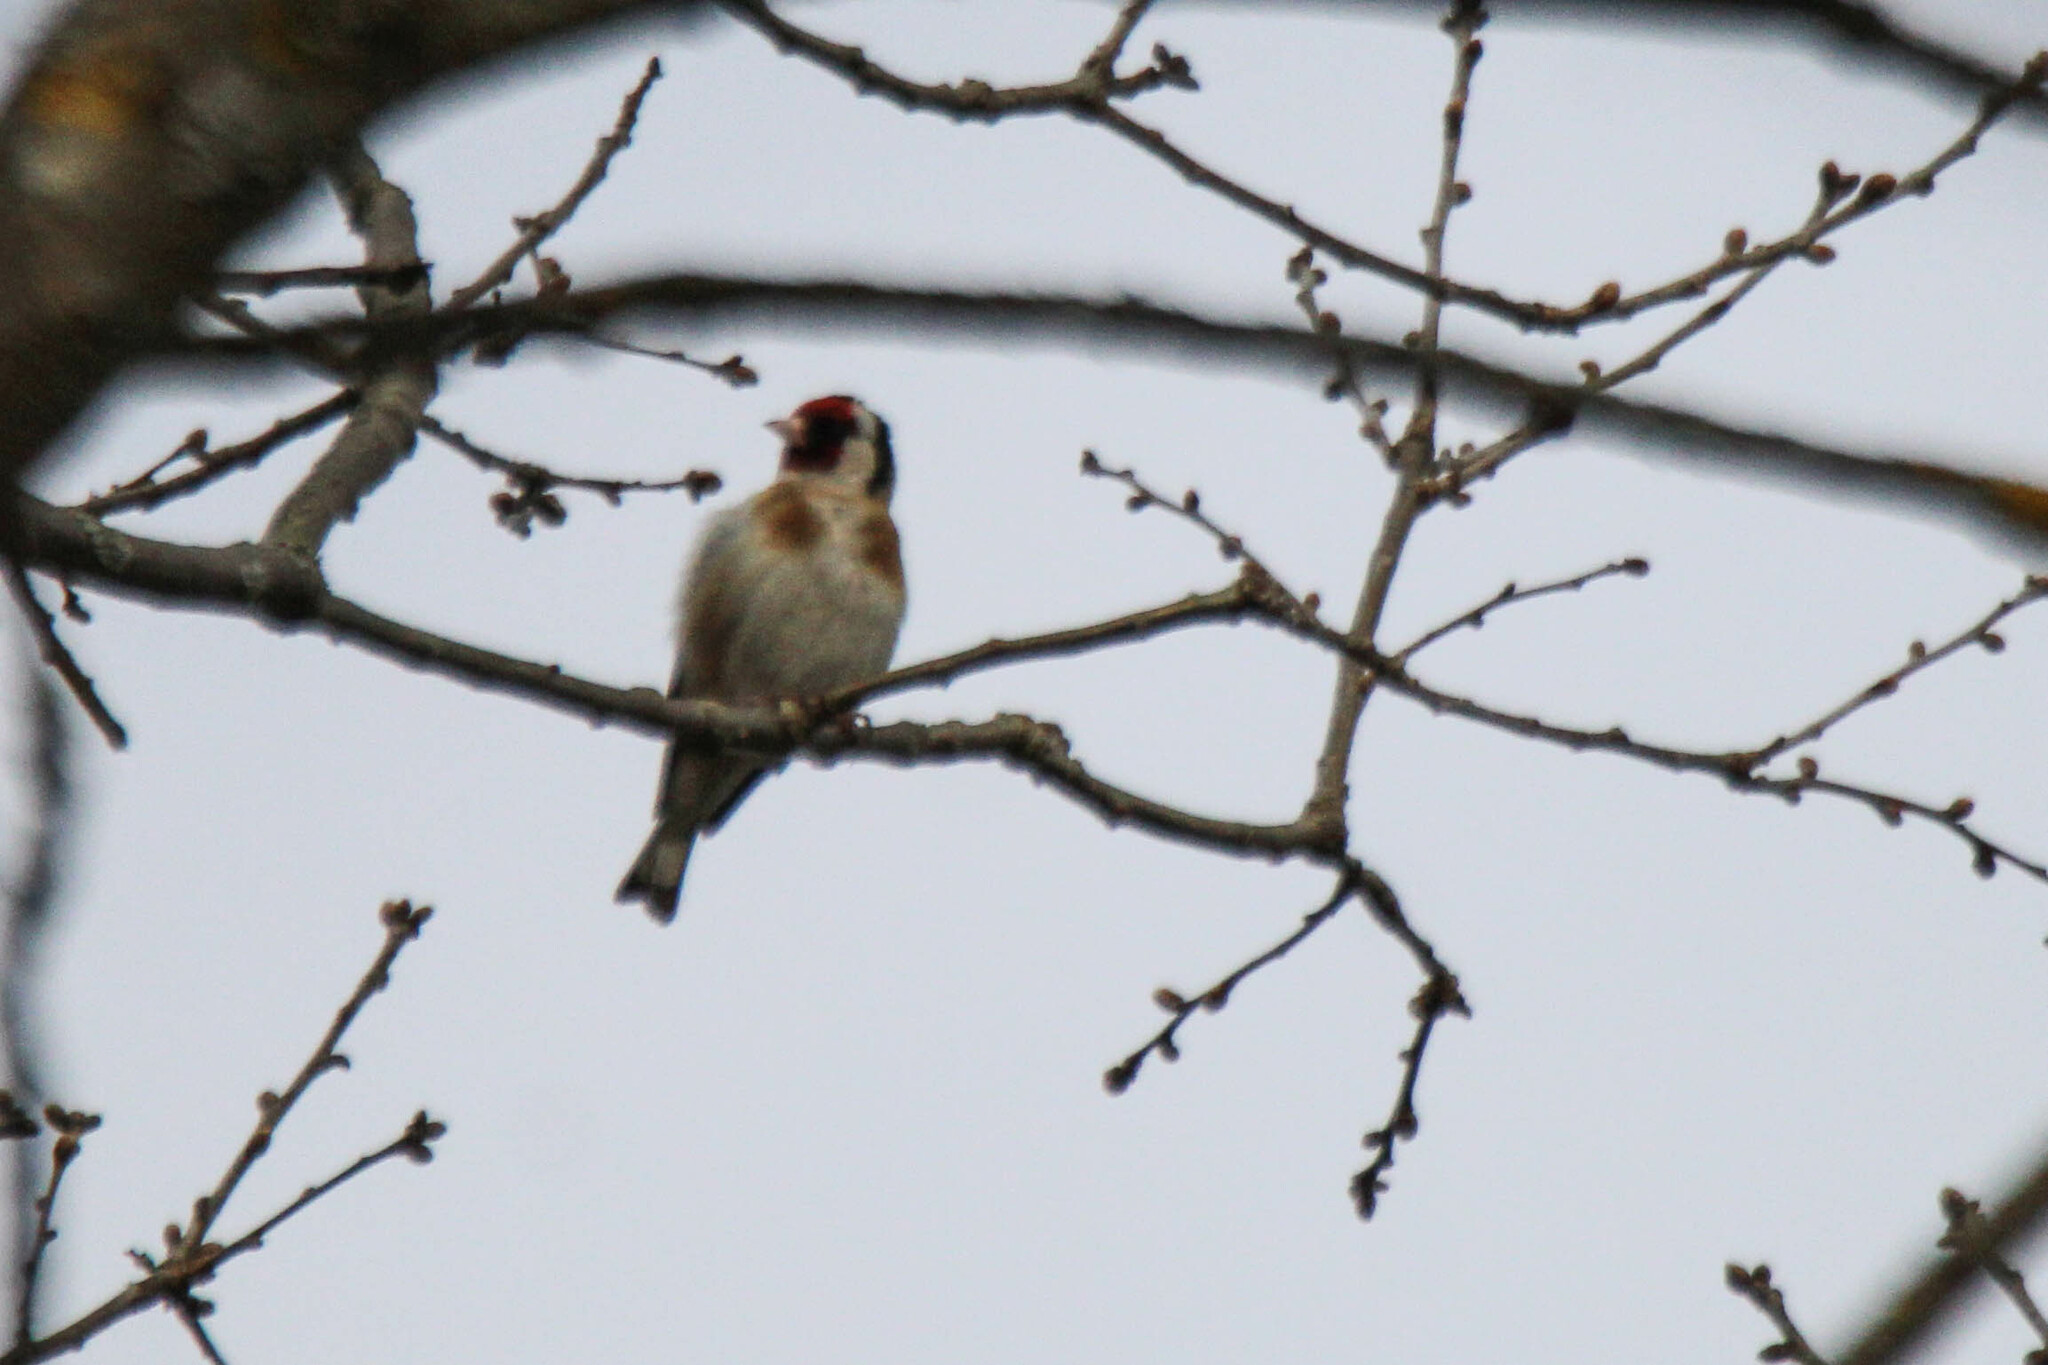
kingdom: Animalia
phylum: Chordata
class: Aves
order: Passeriformes
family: Fringillidae
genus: Carduelis
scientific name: Carduelis carduelis
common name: European goldfinch
